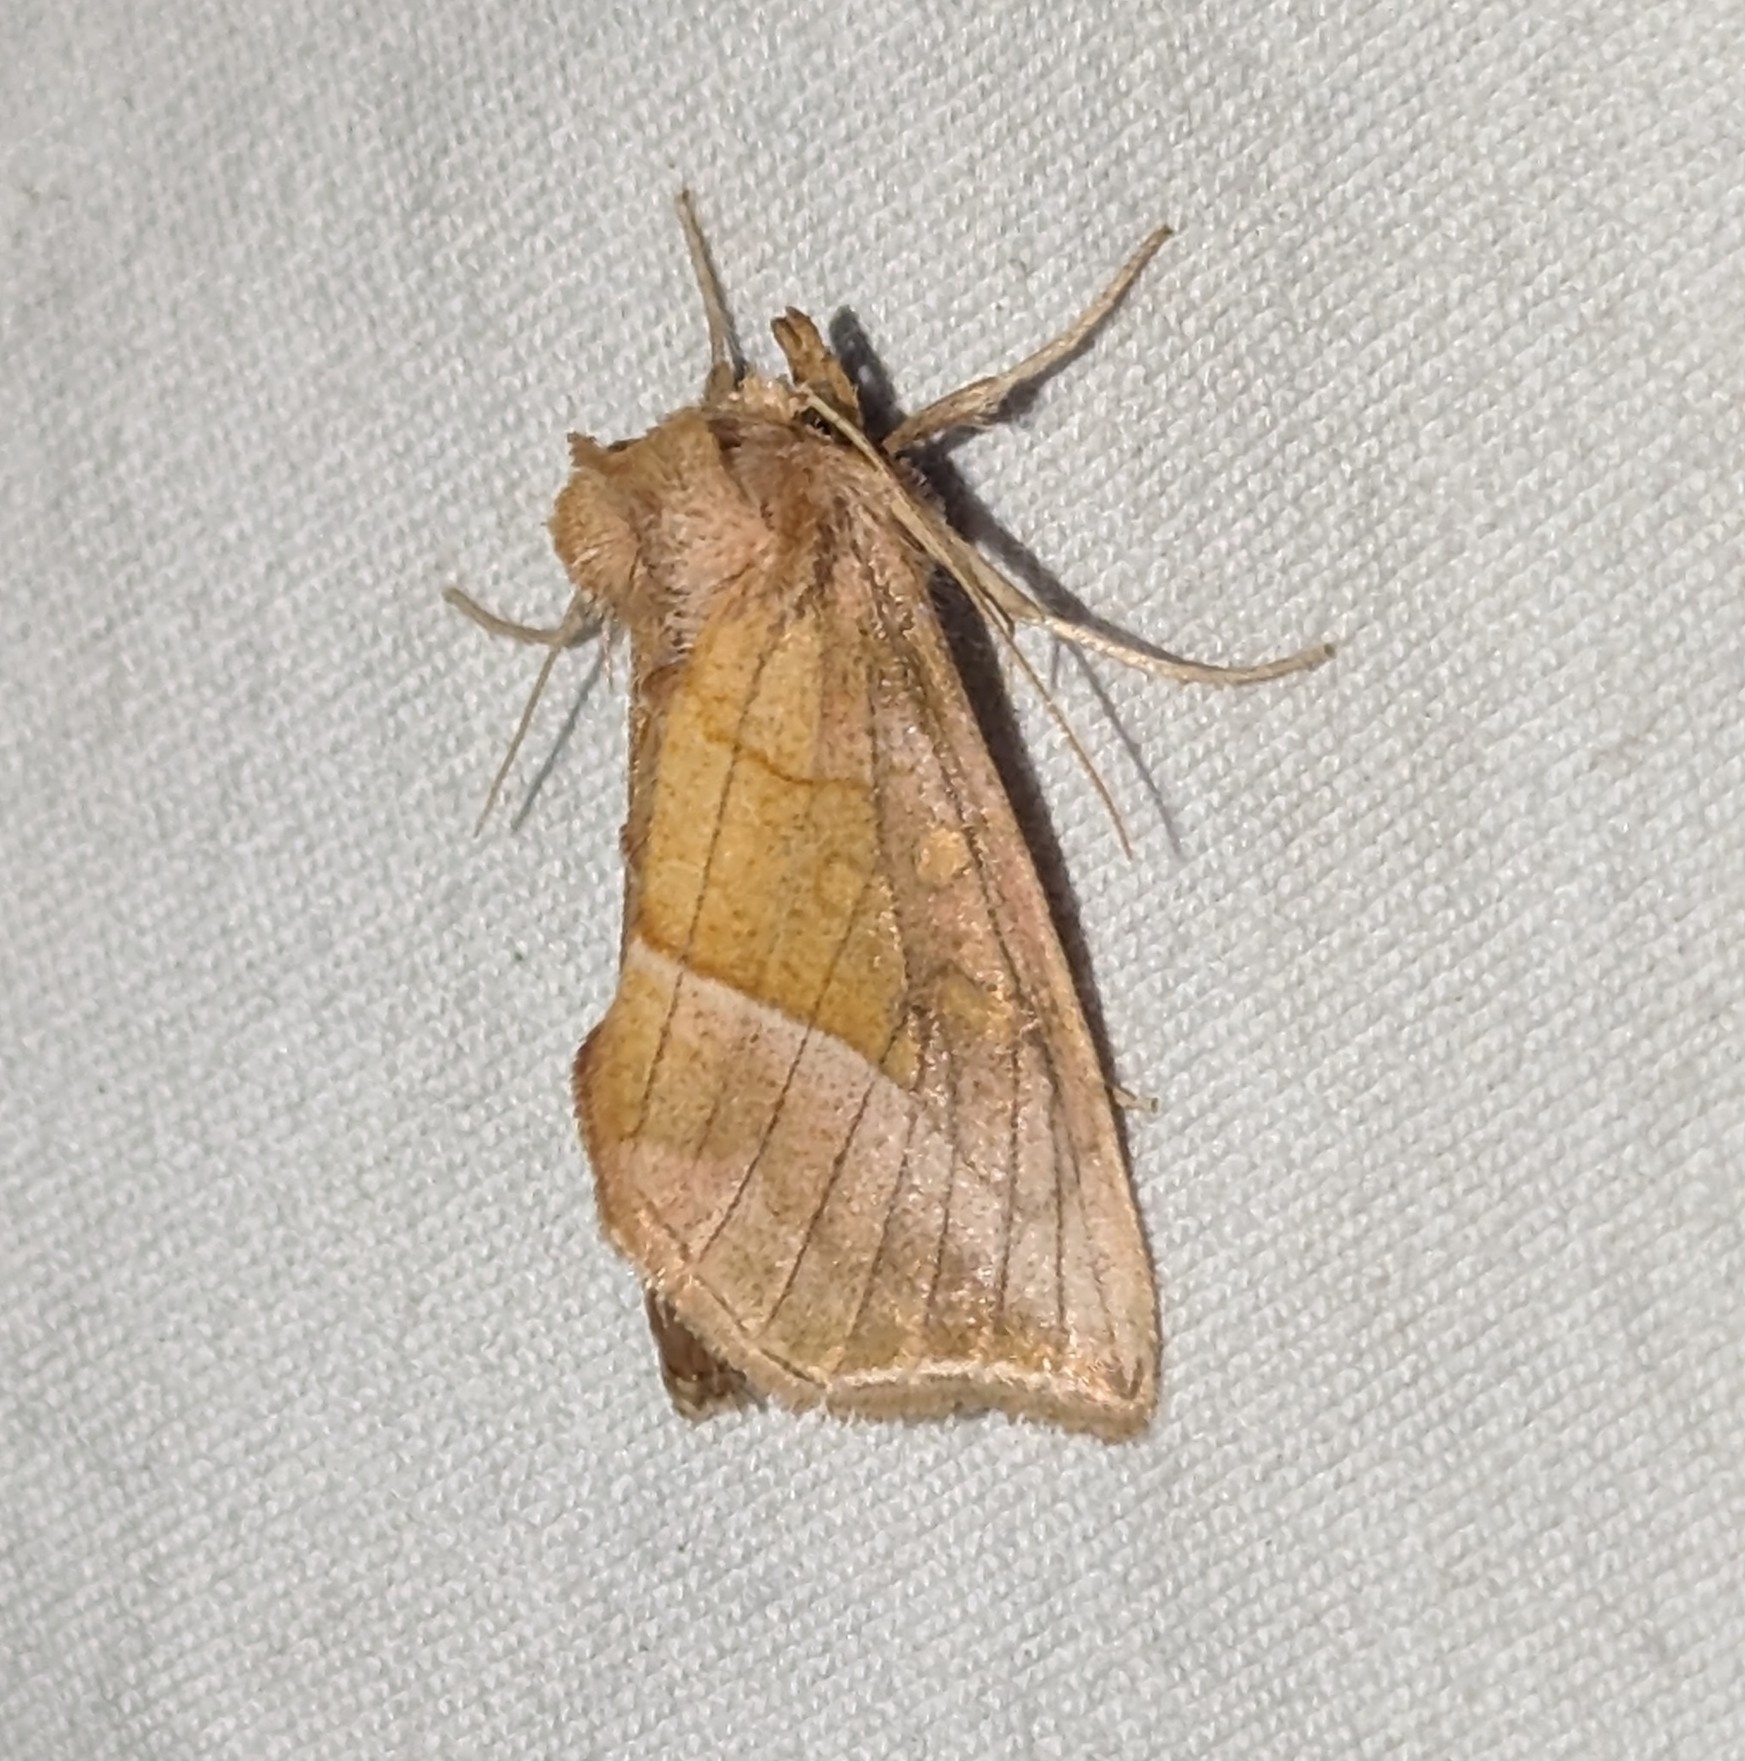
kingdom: Animalia
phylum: Arthropoda
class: Insecta
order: Lepidoptera
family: Noctuidae
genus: Diachrysia
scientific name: Diachrysia aereoides
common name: Dark-spotted looper moth
